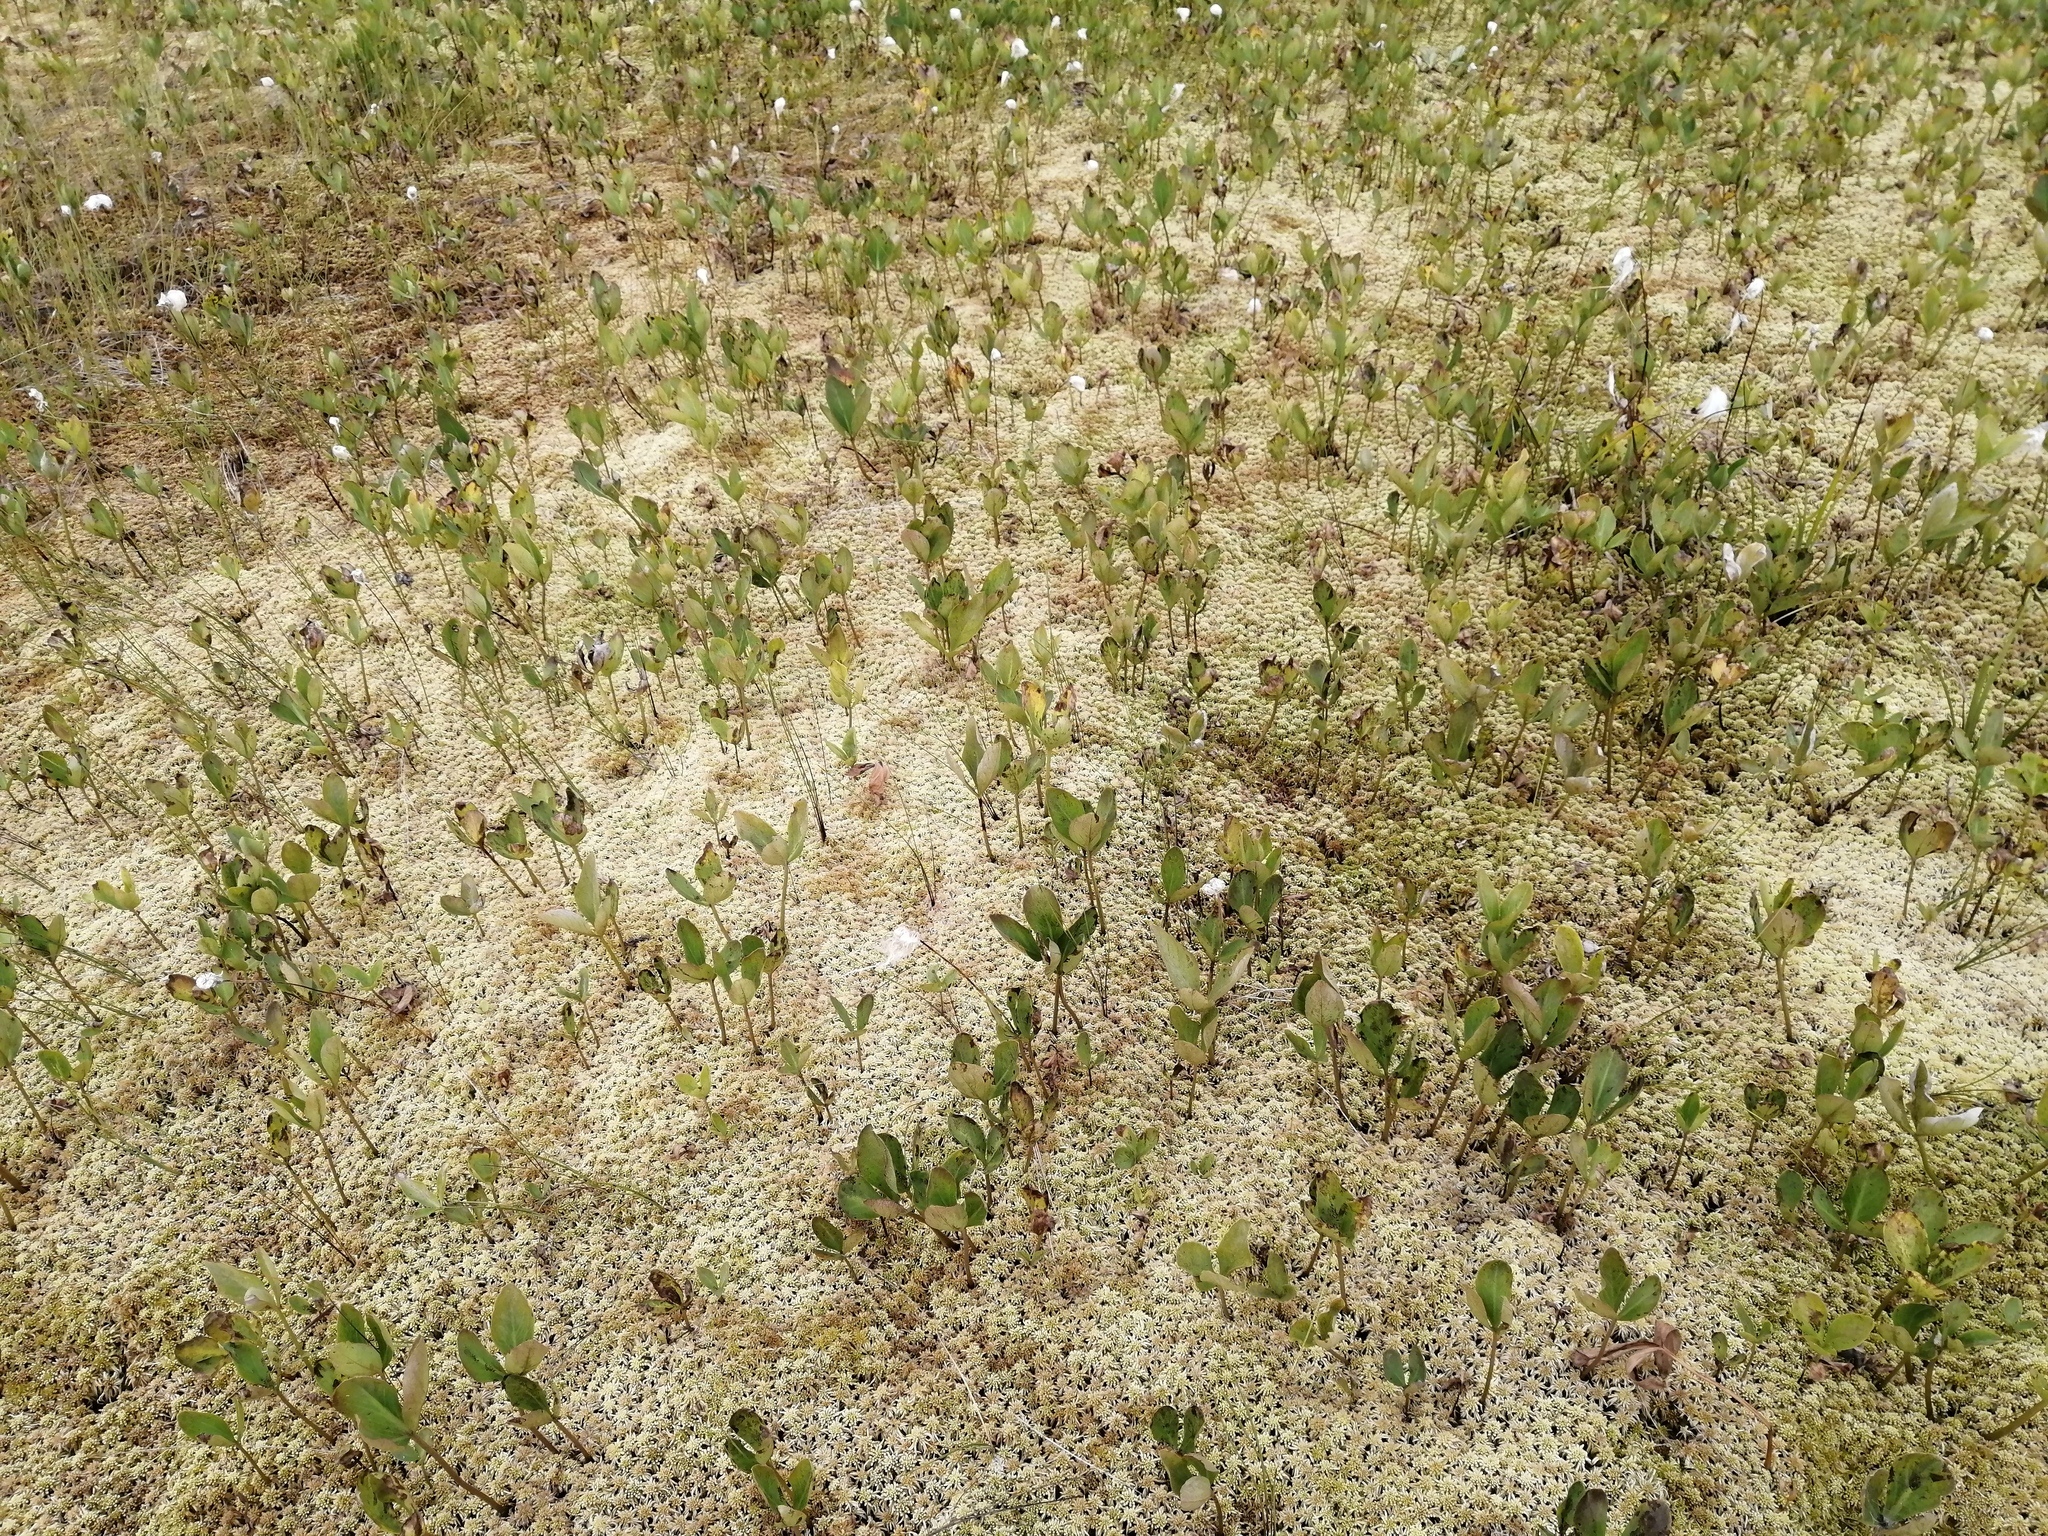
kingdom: Plantae
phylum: Tracheophyta
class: Magnoliopsida
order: Asterales
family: Menyanthaceae
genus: Menyanthes
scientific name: Menyanthes trifoliata
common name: Bogbean
